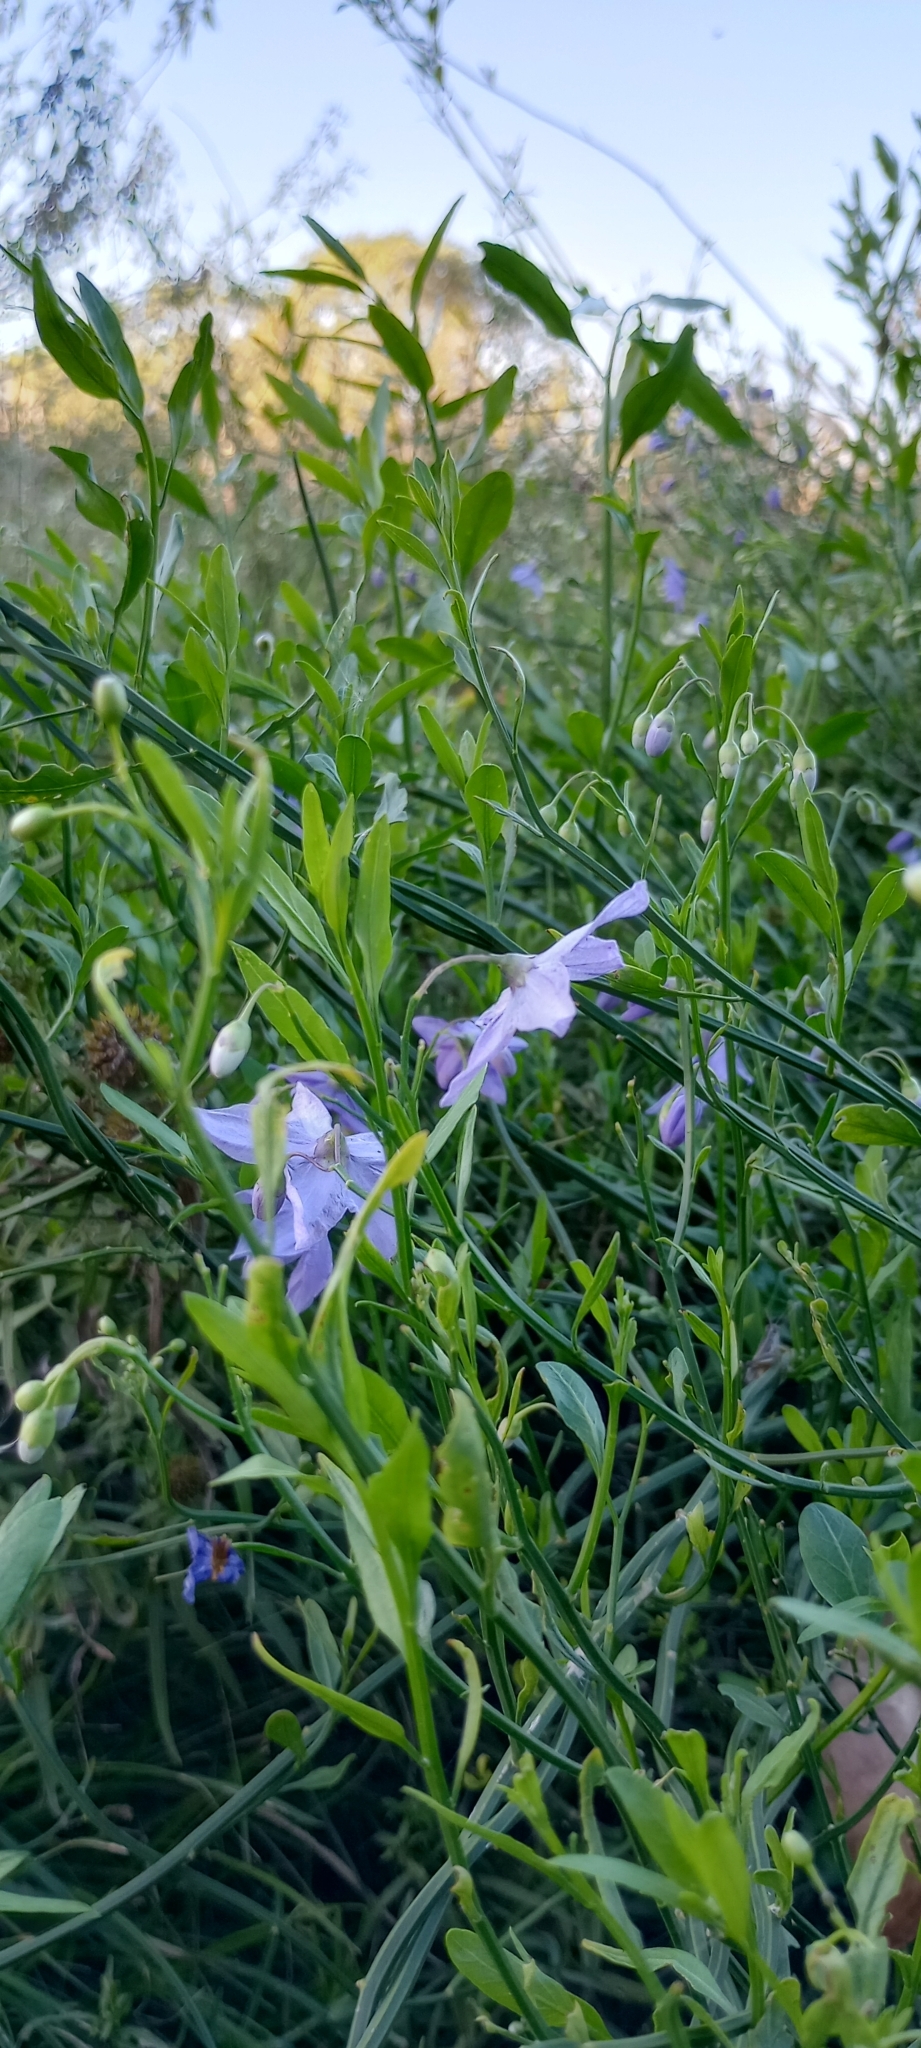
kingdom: Plantae
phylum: Tracheophyta
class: Magnoliopsida
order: Solanales
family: Solanaceae
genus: Solanum
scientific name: Solanum amygdalifolium
